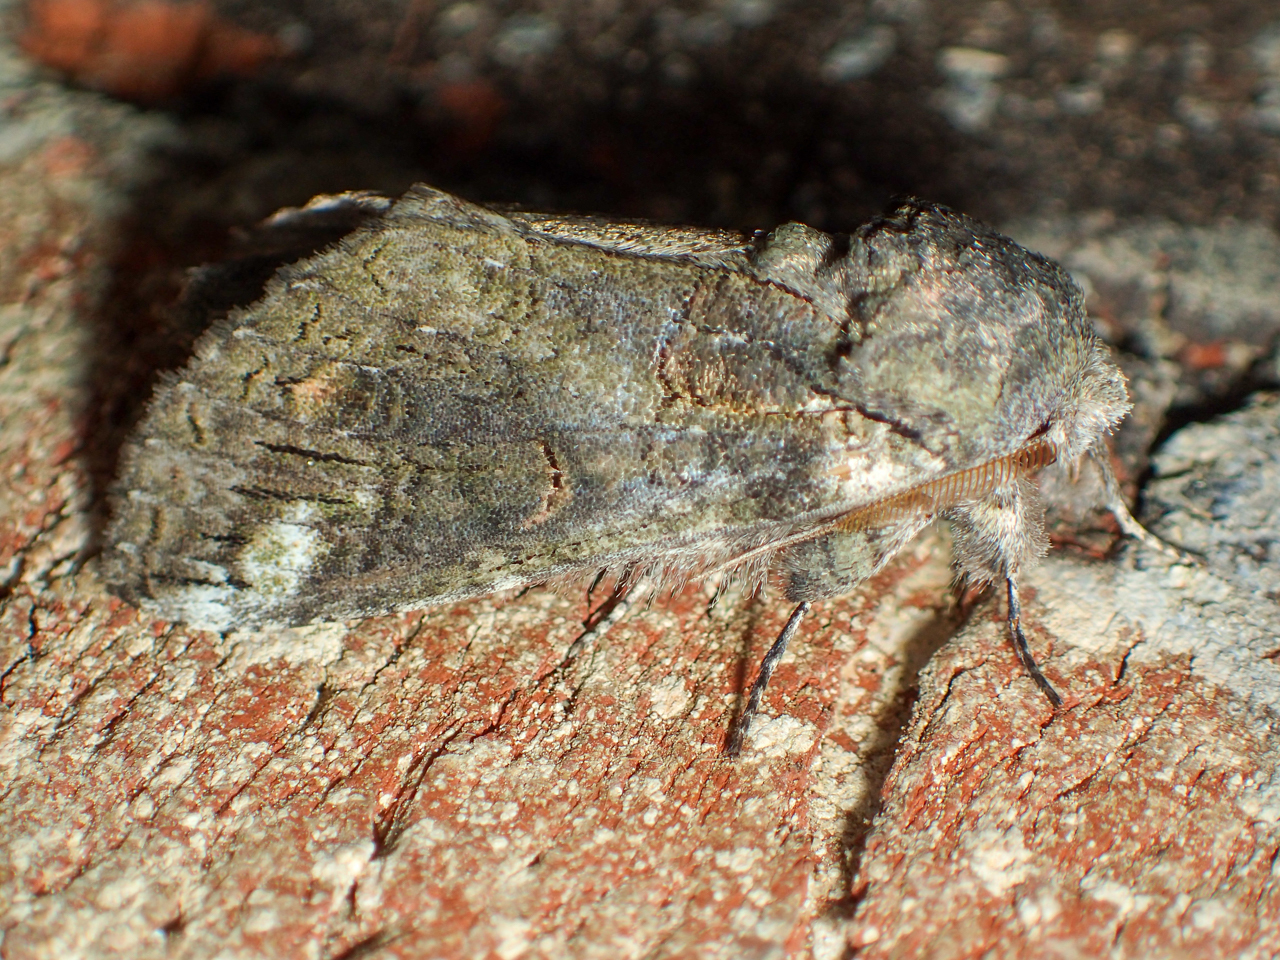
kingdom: Animalia
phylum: Arthropoda
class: Insecta
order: Lepidoptera
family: Notodontidae
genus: Heterocampa
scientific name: Heterocampa obliqua
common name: Oblique heterocampa
